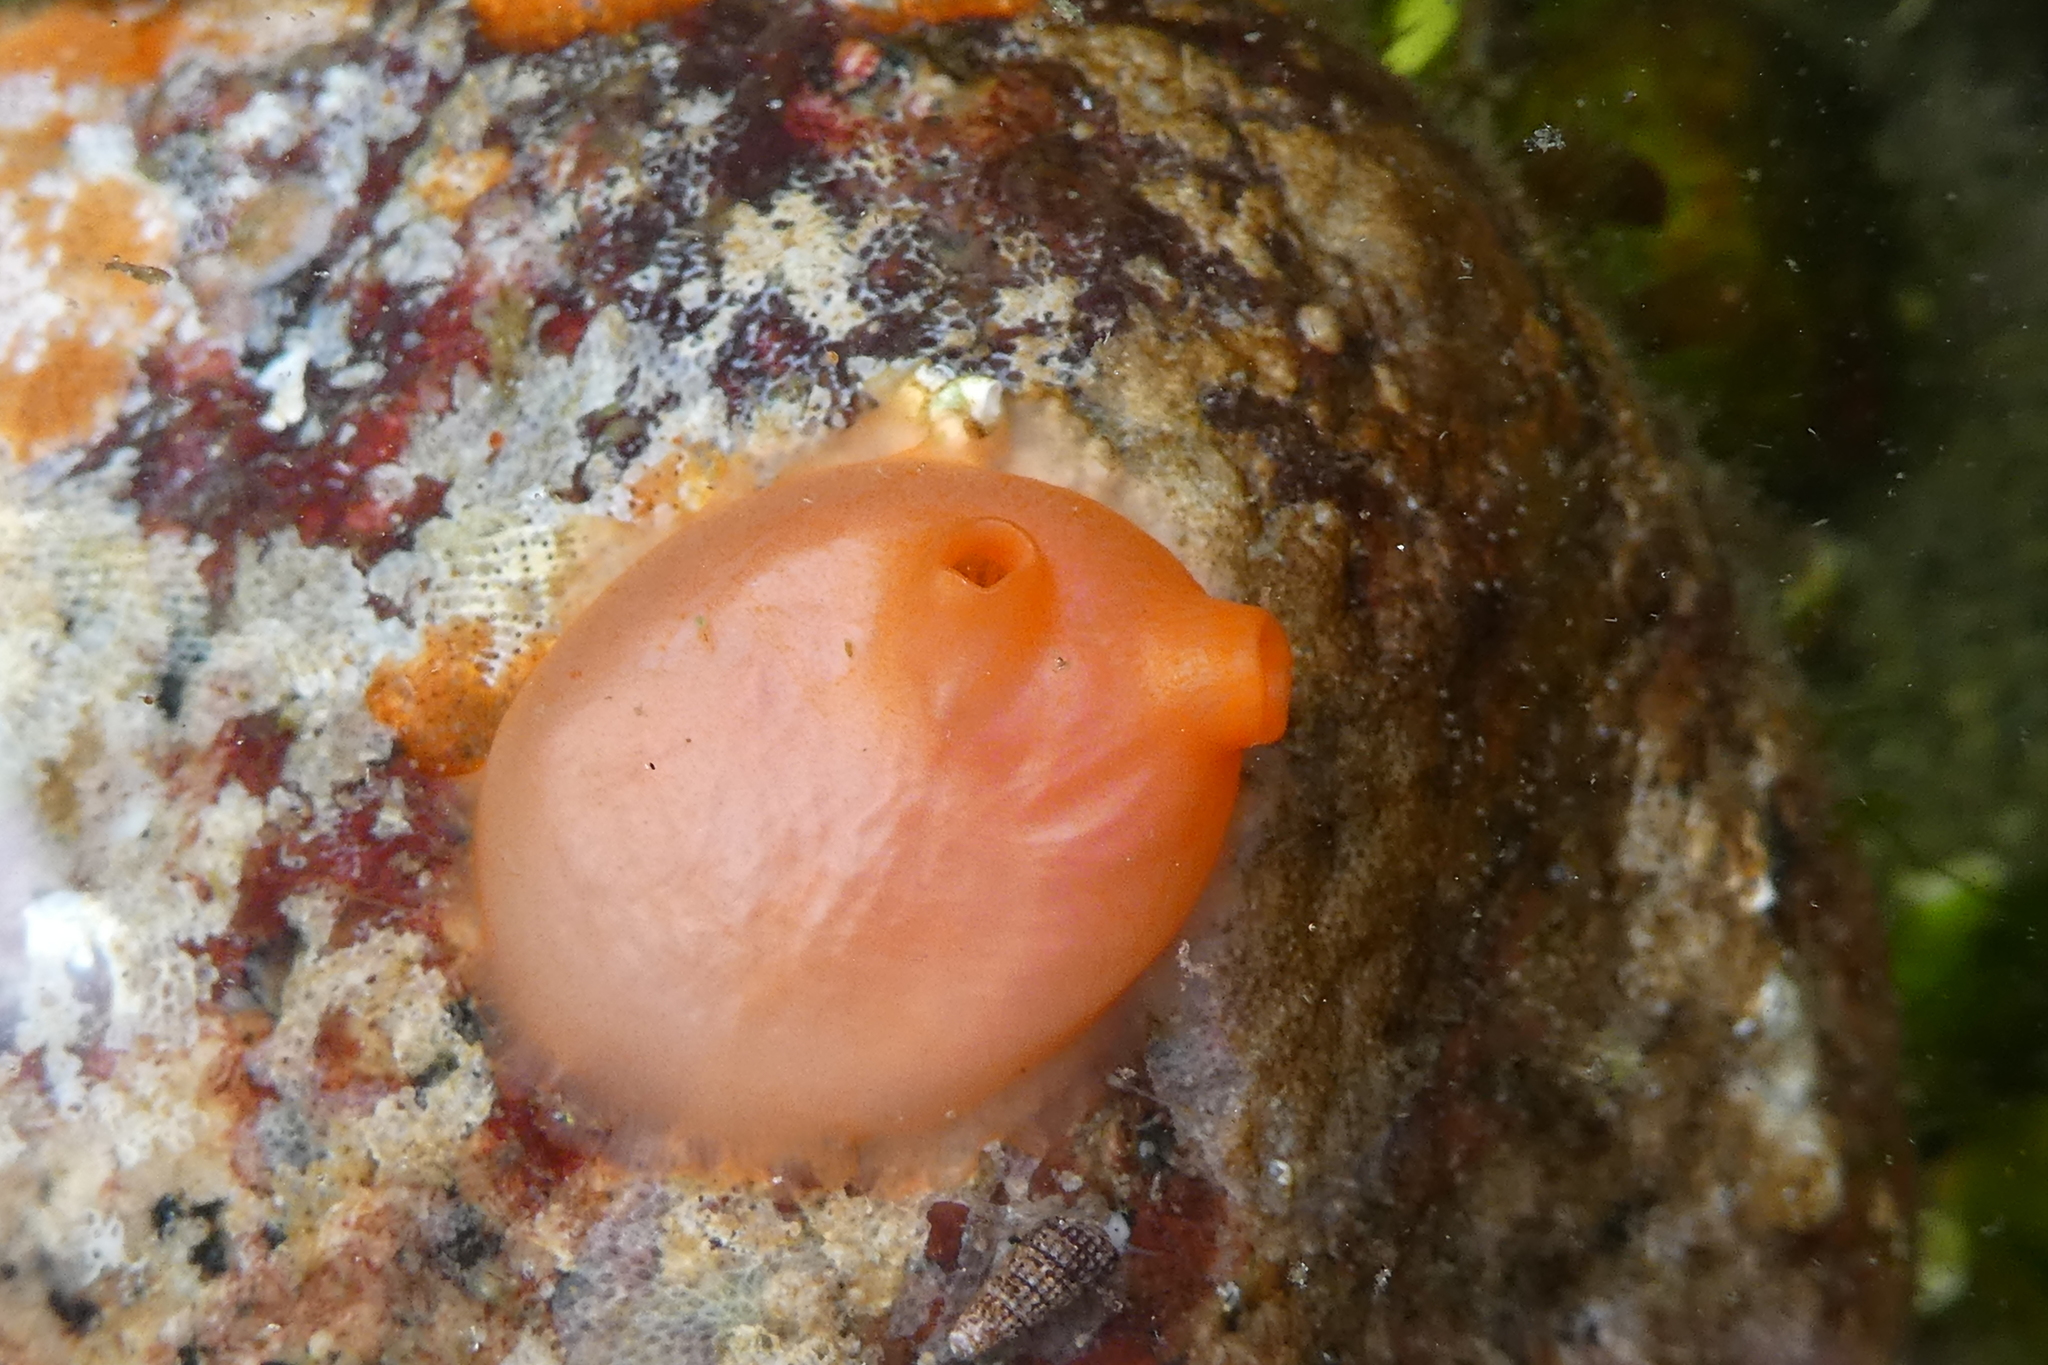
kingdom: Animalia
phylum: Chordata
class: Ascidiacea
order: Stolidobranchia
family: Styelidae
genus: Cnemidocarpa
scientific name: Cnemidocarpa finmarkiensis
